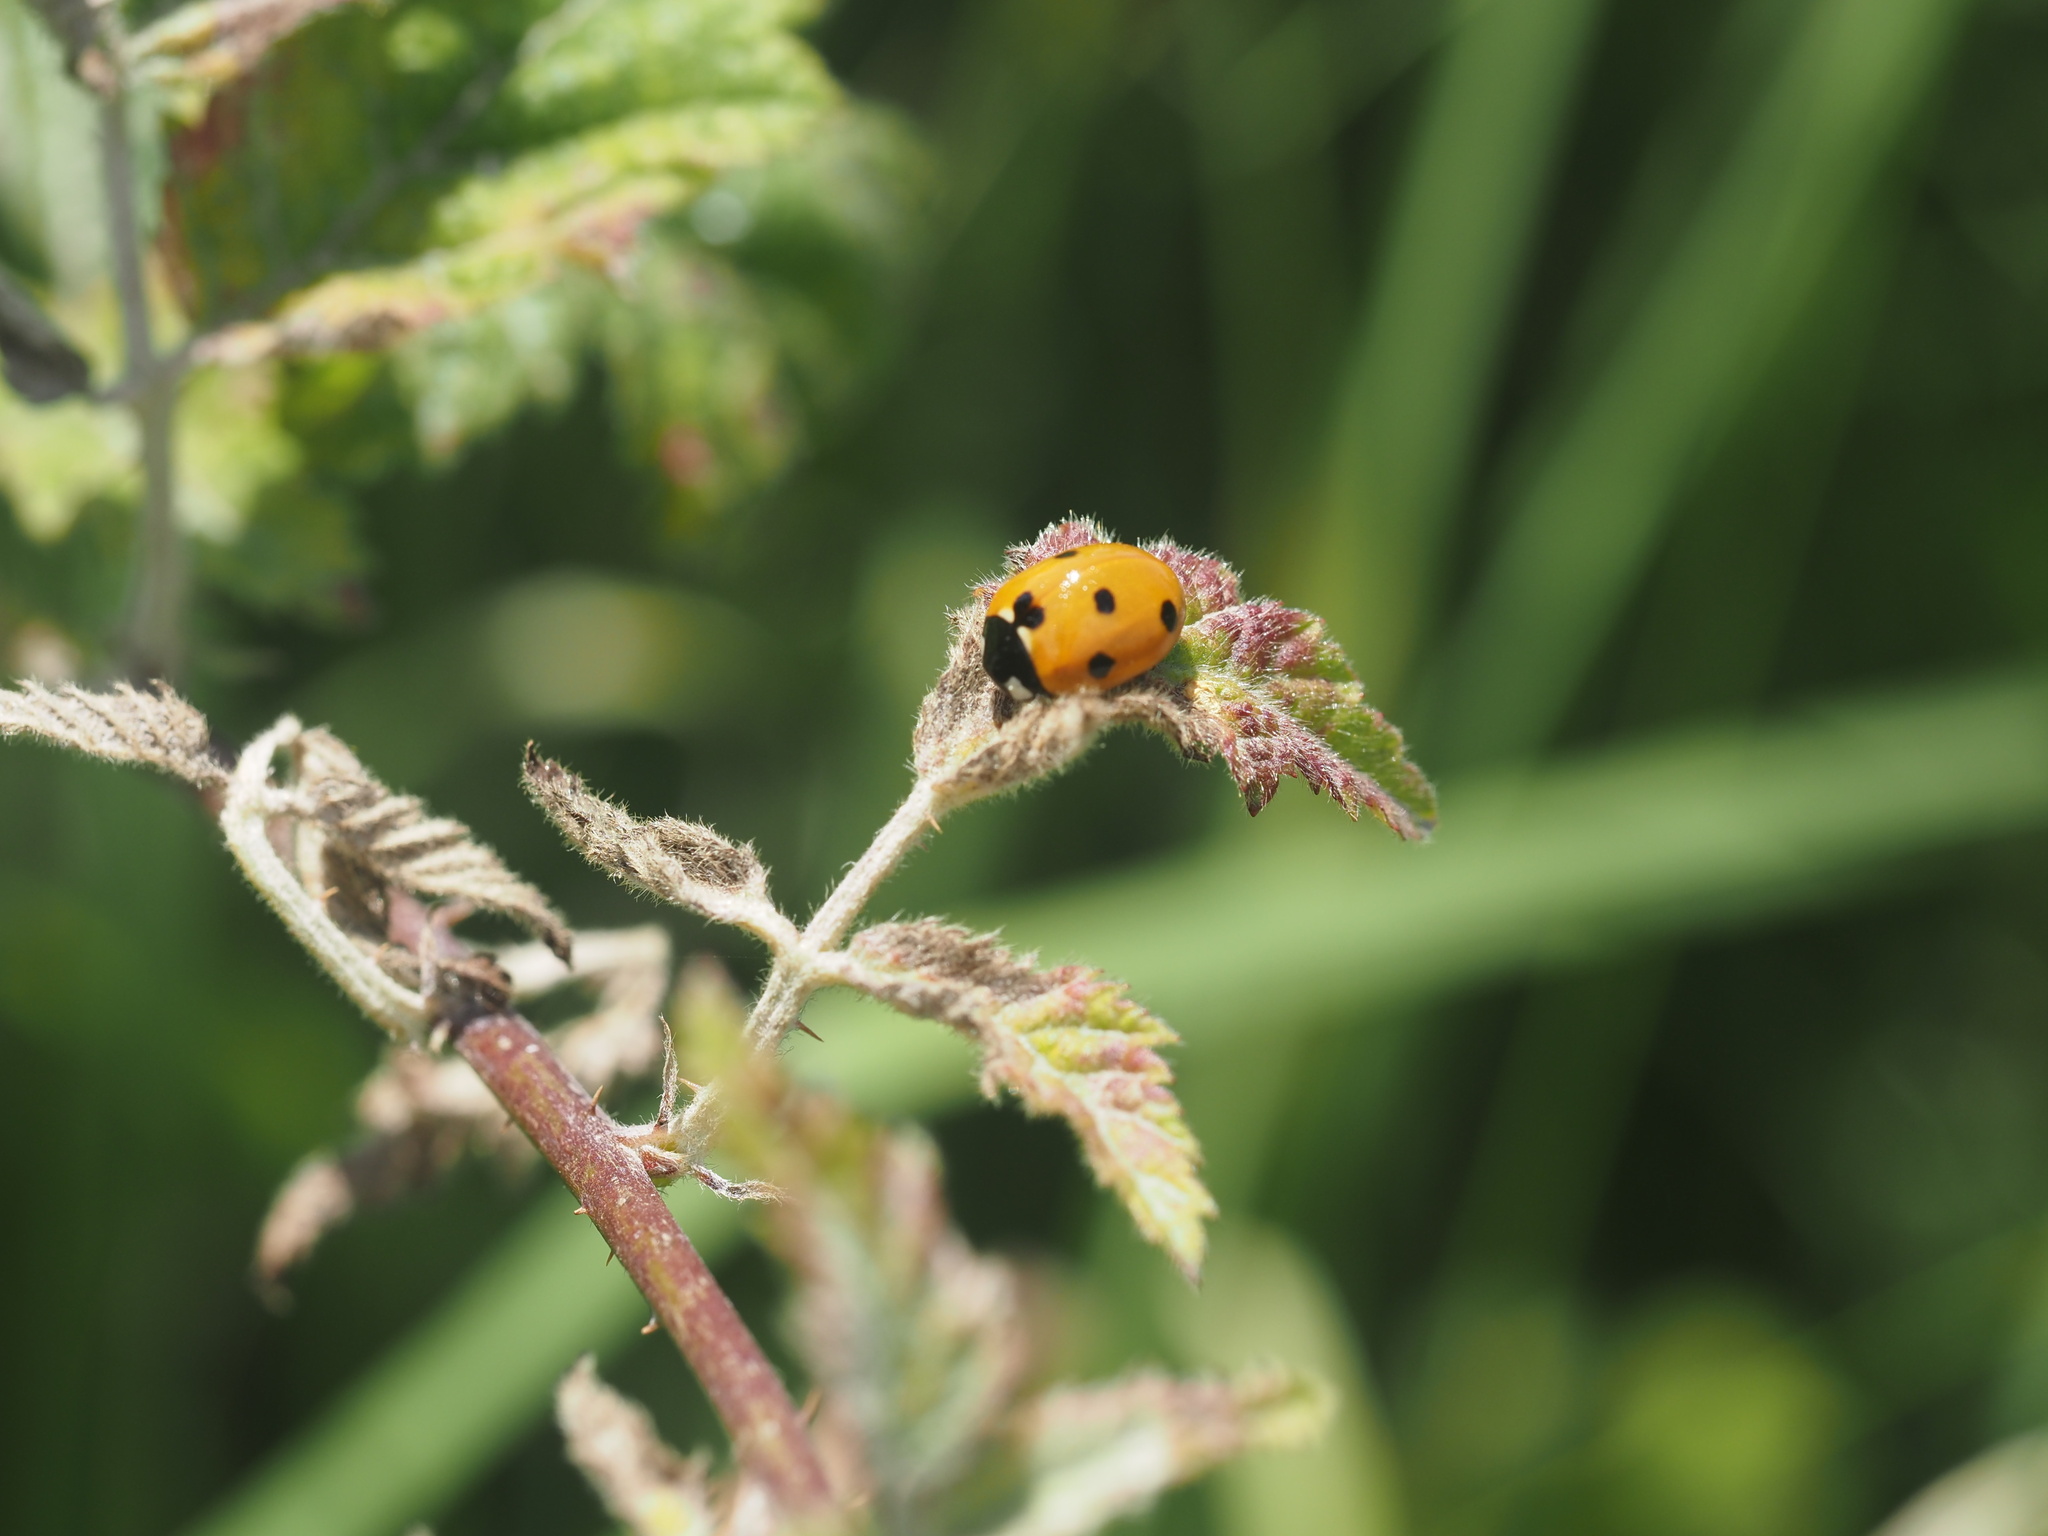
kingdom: Animalia
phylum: Arthropoda
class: Insecta
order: Coleoptera
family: Coccinellidae
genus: Coccinella
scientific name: Coccinella septempunctata
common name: Sevenspotted lady beetle
